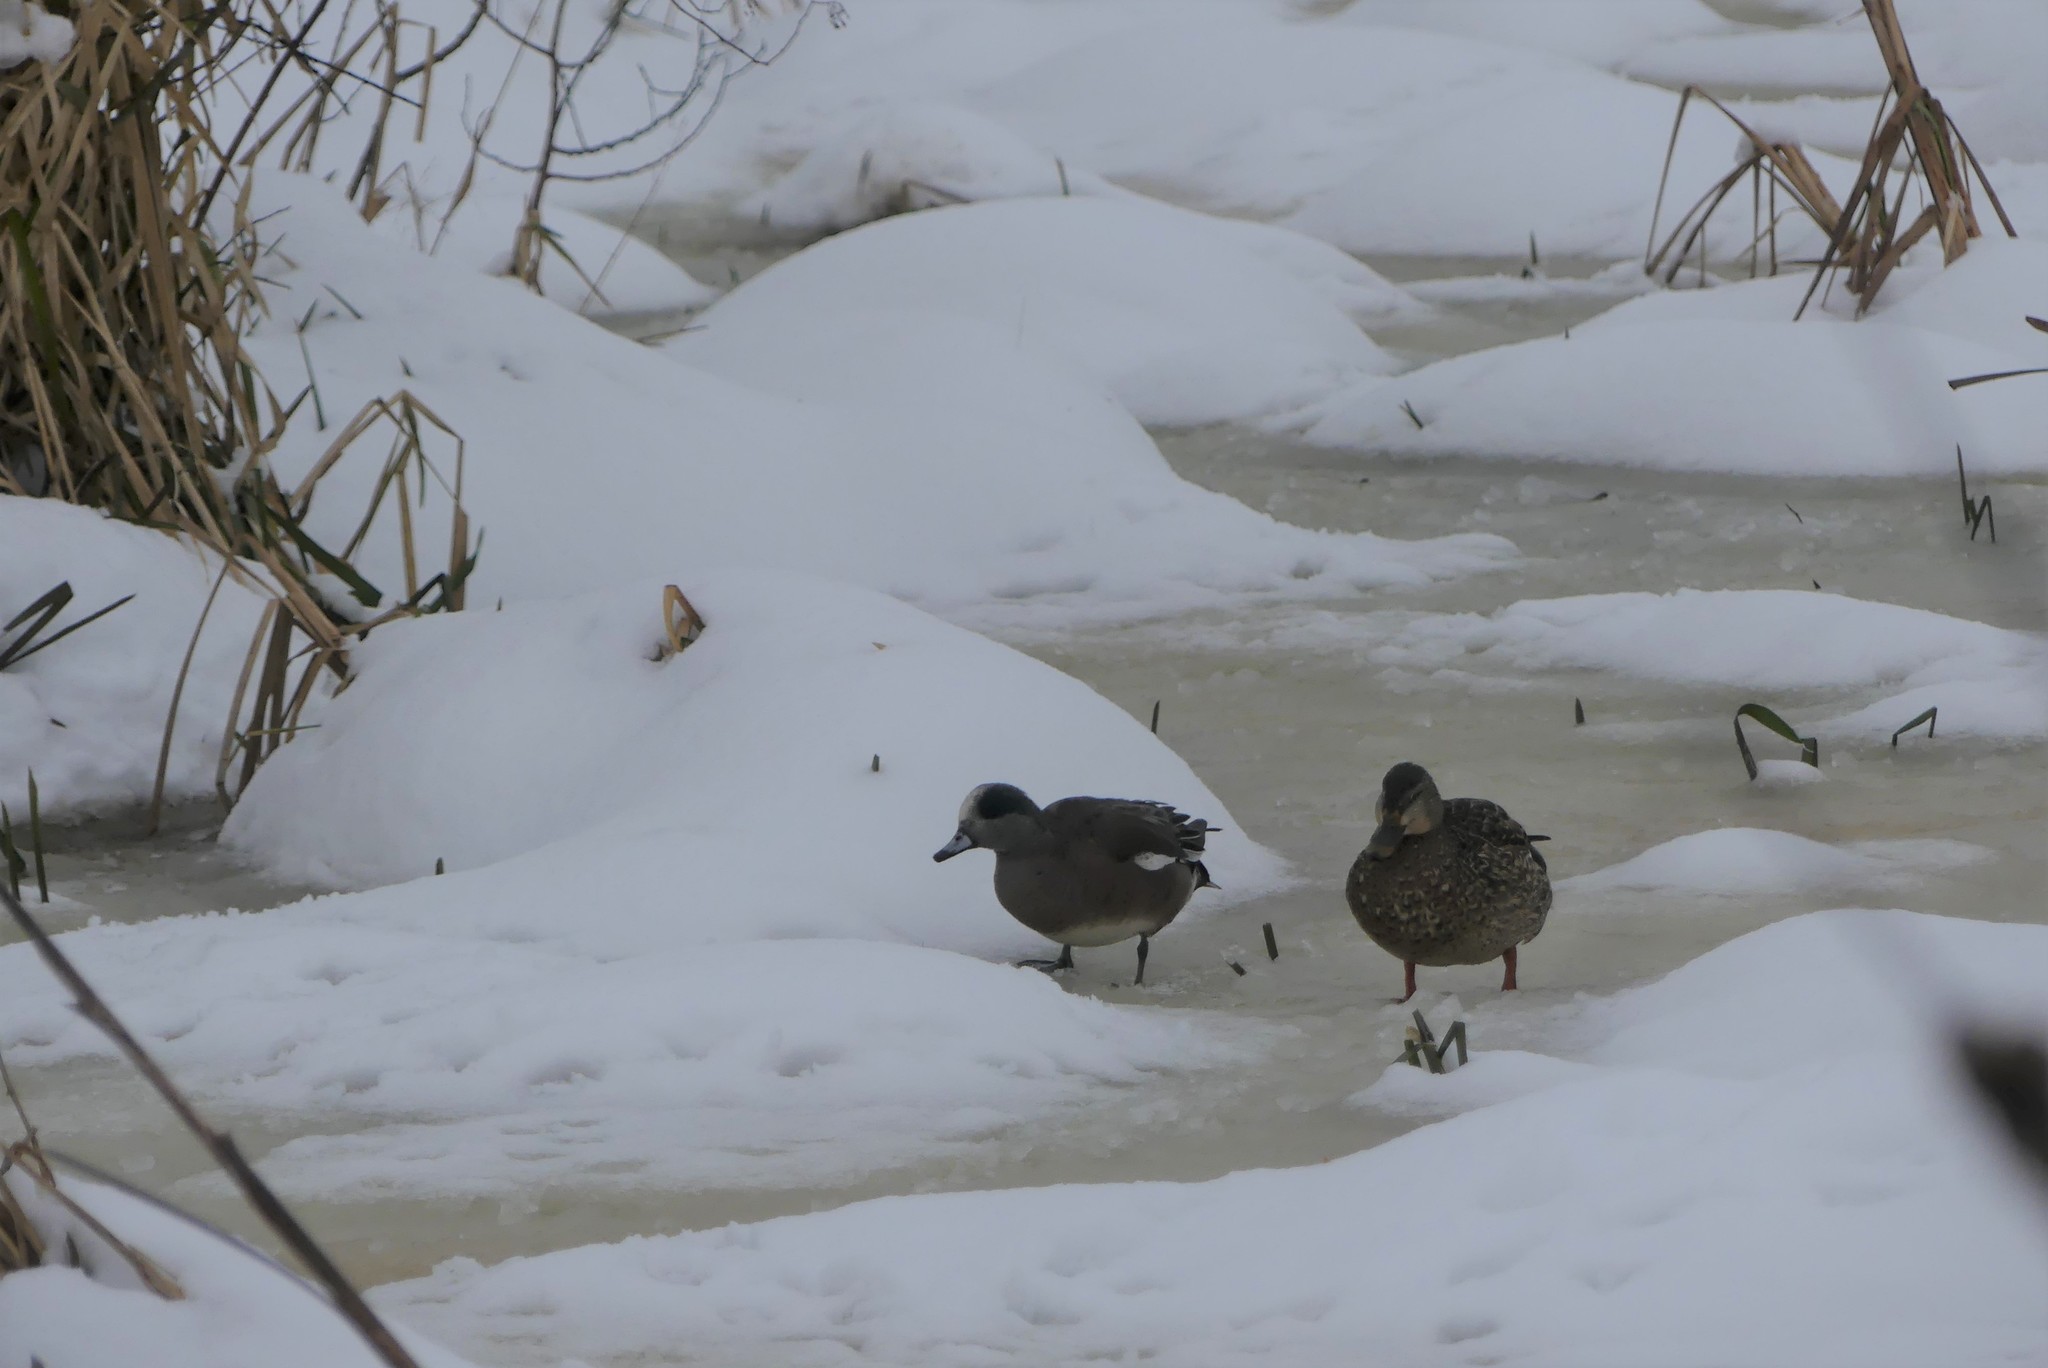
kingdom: Animalia
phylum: Chordata
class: Aves
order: Anseriformes
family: Anatidae
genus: Mareca
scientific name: Mareca americana
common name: American wigeon
